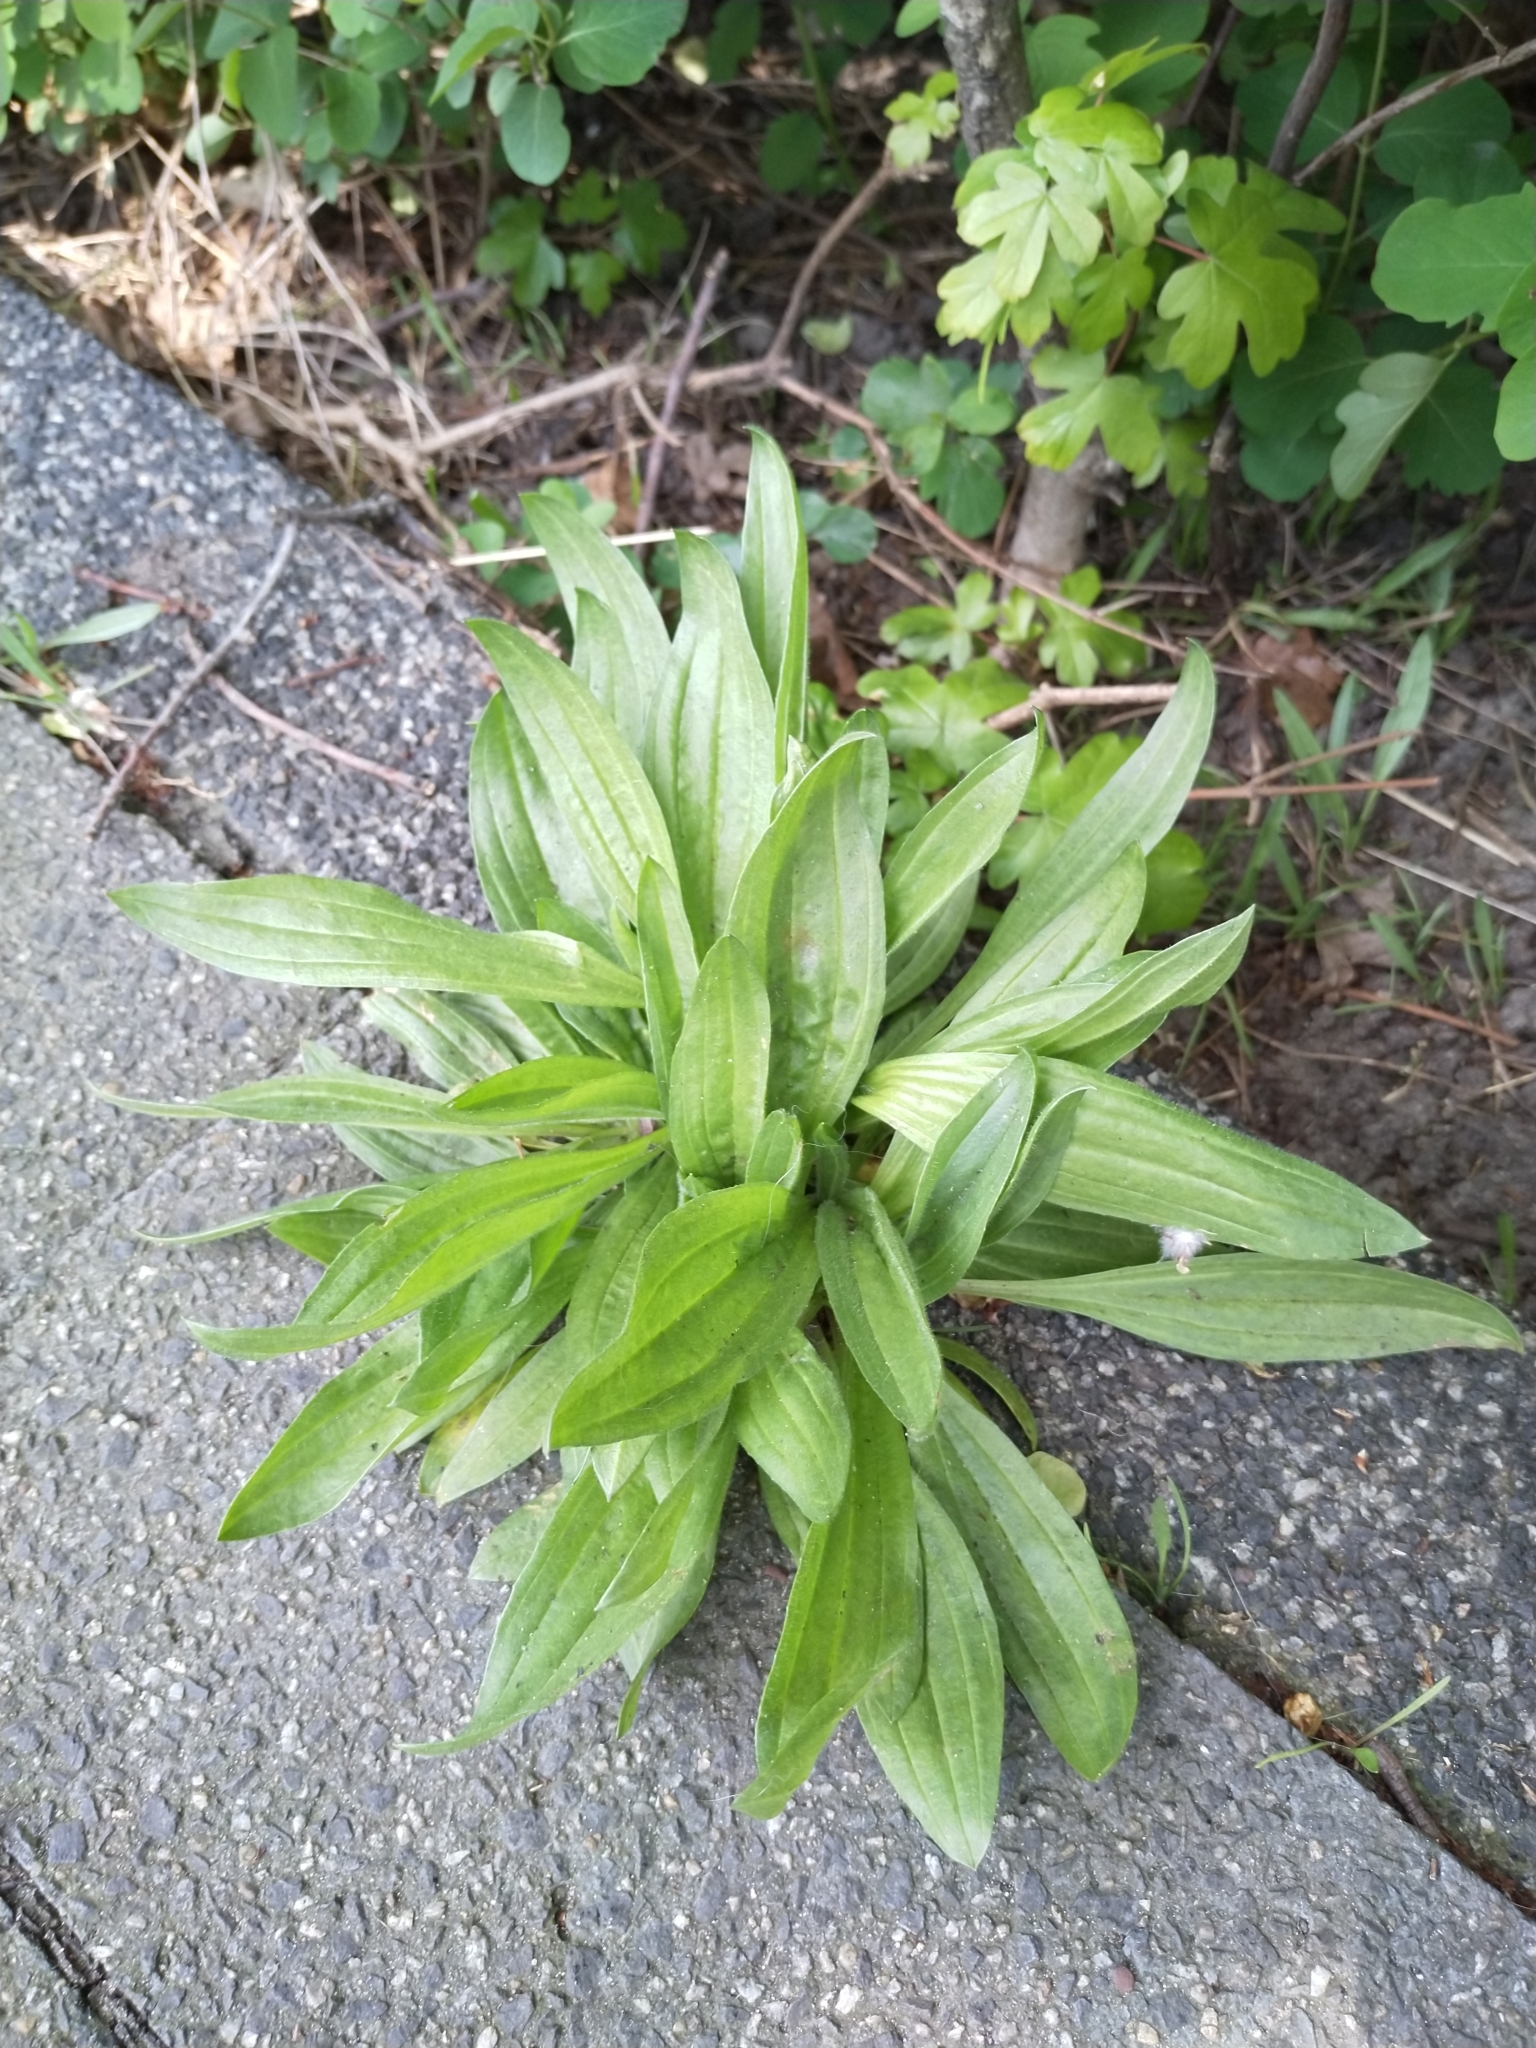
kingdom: Plantae
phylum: Tracheophyta
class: Magnoliopsida
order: Lamiales
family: Plantaginaceae
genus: Plantago
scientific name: Plantago lanceolata
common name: Ribwort plantain
